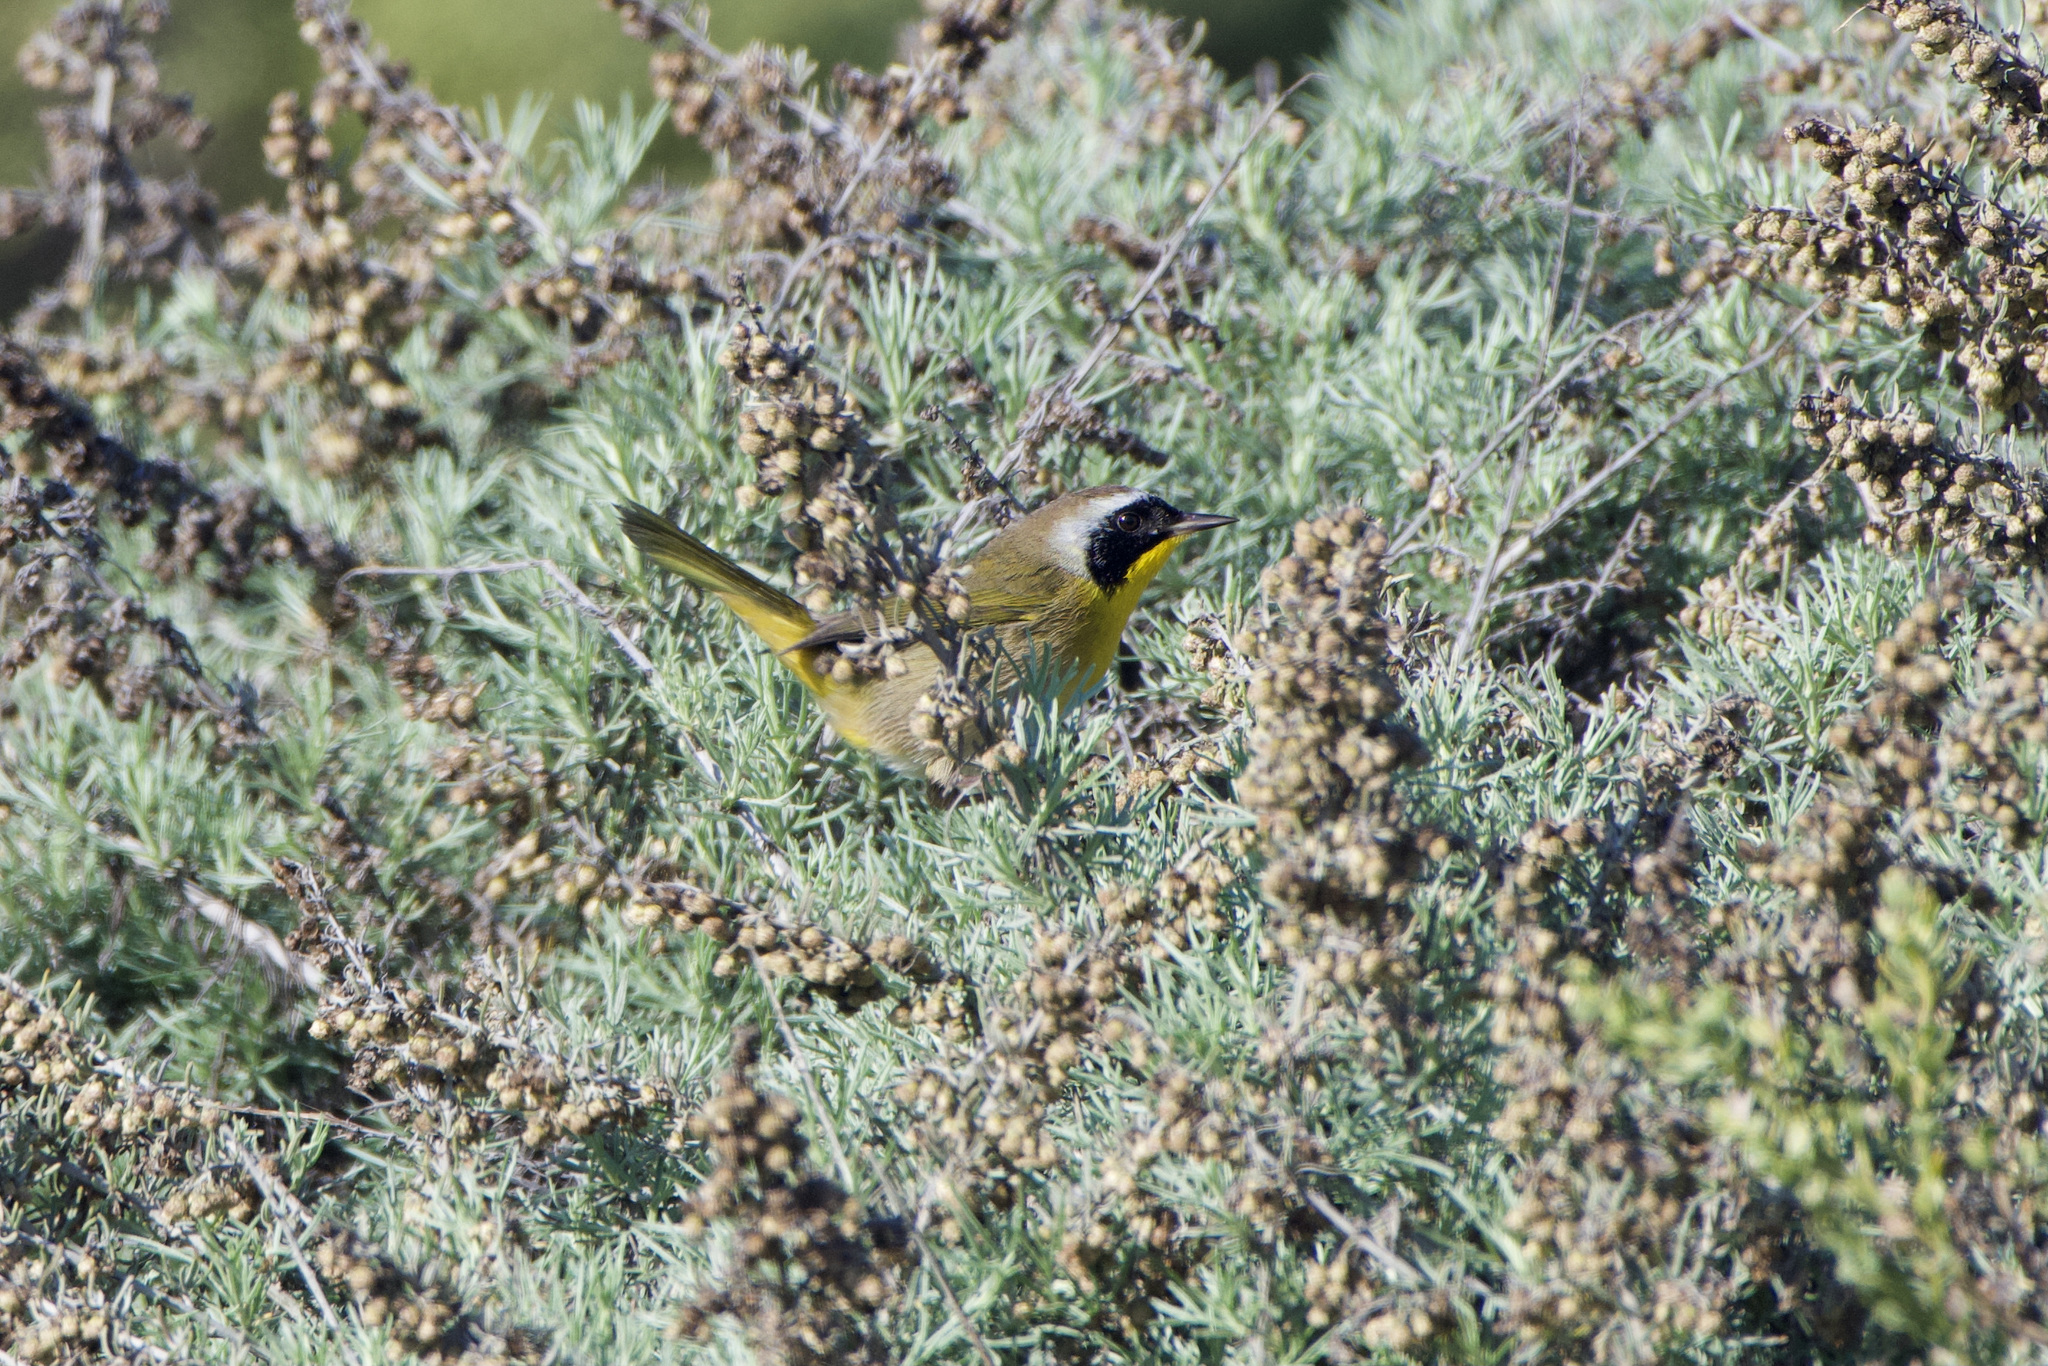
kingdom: Animalia
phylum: Chordata
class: Aves
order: Passeriformes
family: Parulidae
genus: Geothlypis
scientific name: Geothlypis trichas
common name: Common yellowthroat
